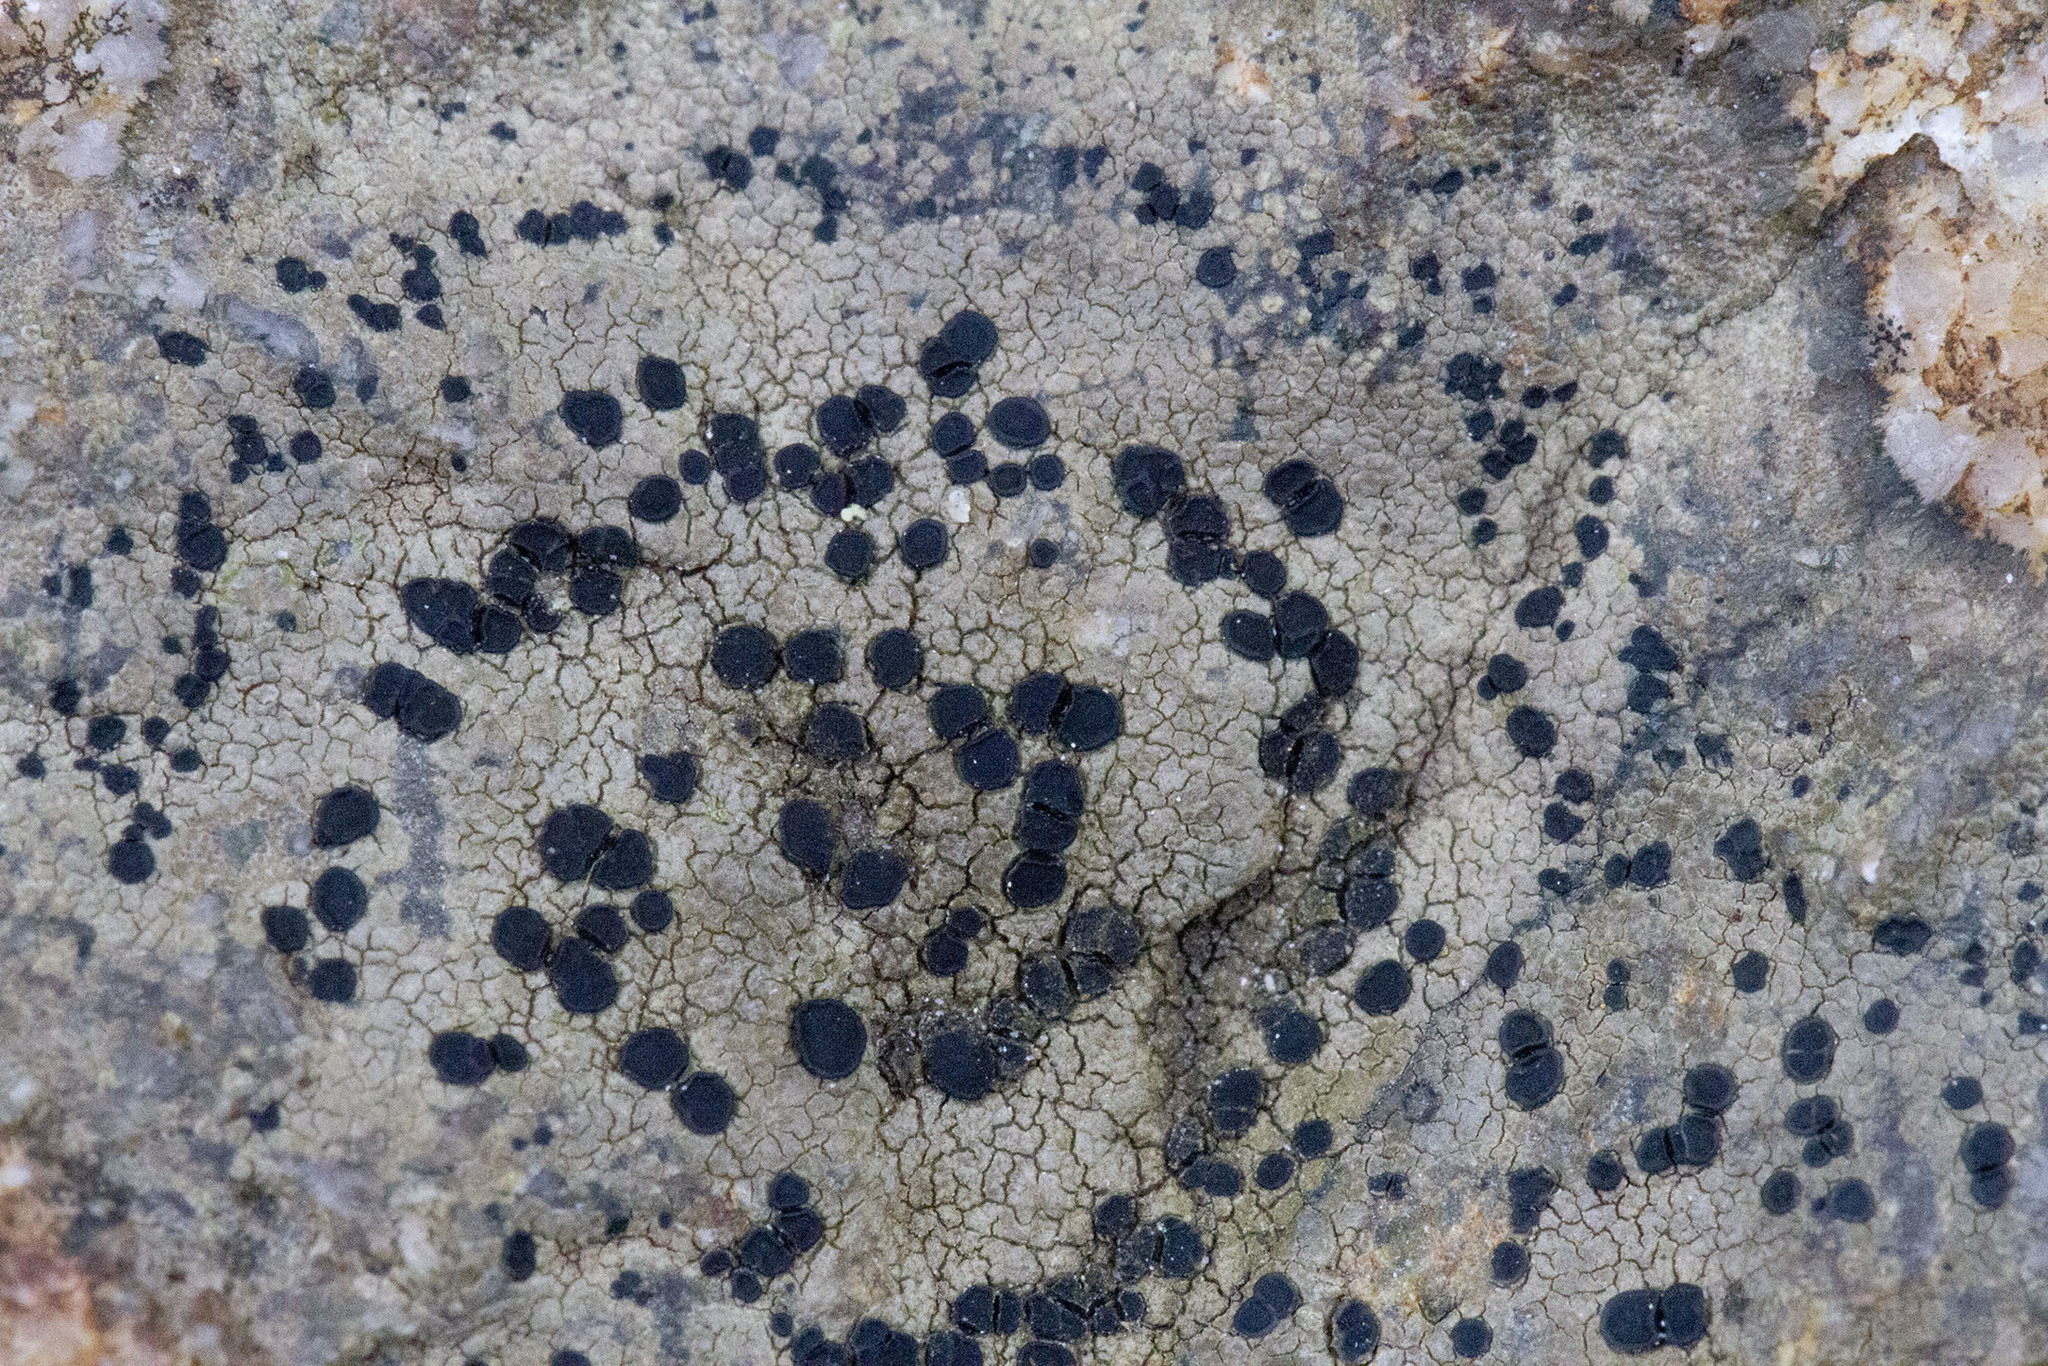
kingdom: Fungi
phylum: Ascomycota
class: Lecanoromycetes
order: Lecideales
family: Lecideaceae
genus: Porpidia
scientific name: Porpidia crustulata
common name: Concentric boulder lichen
